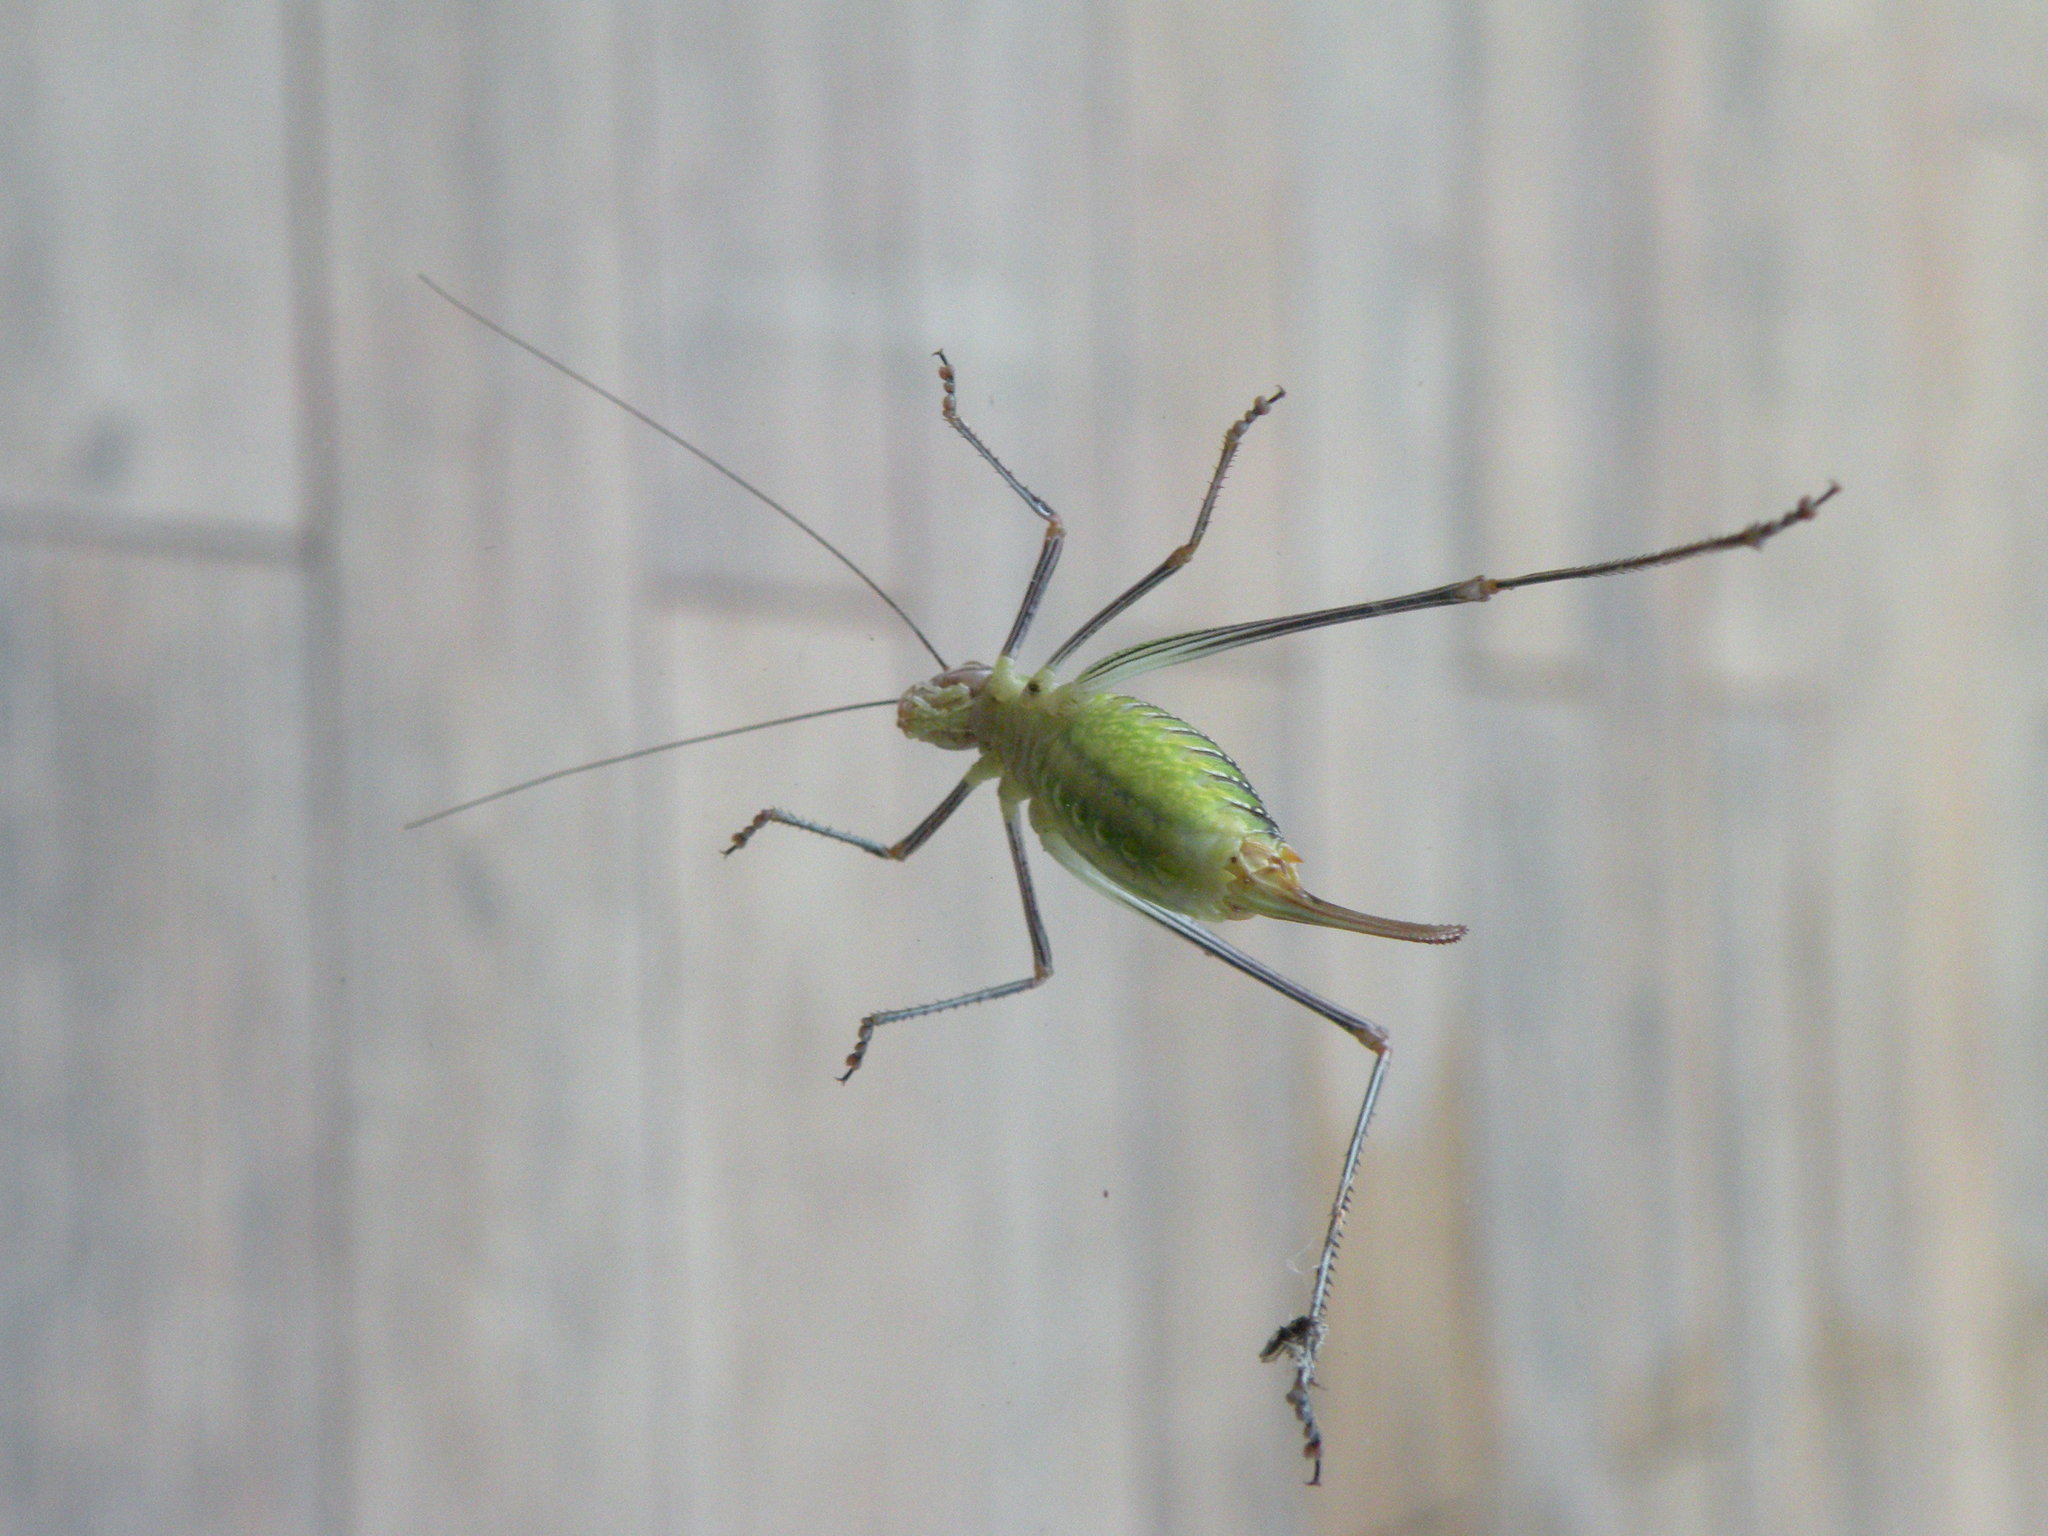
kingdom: Animalia
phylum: Arthropoda
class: Insecta
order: Orthoptera
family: Tettigoniidae
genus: Obolopteryx
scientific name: Obolopteryx catinata
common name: Spoon-tailed short-winged katydid
